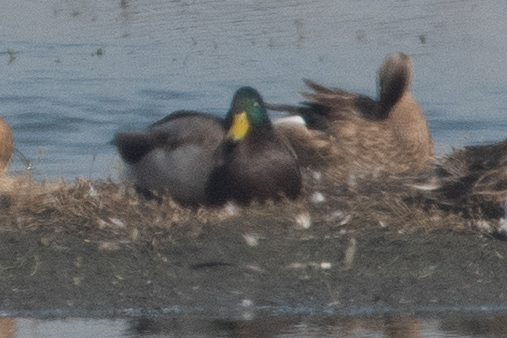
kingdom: Animalia
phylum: Chordata
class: Aves
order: Anseriformes
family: Anatidae
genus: Anas
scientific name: Anas platyrhynchos
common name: Mallard
